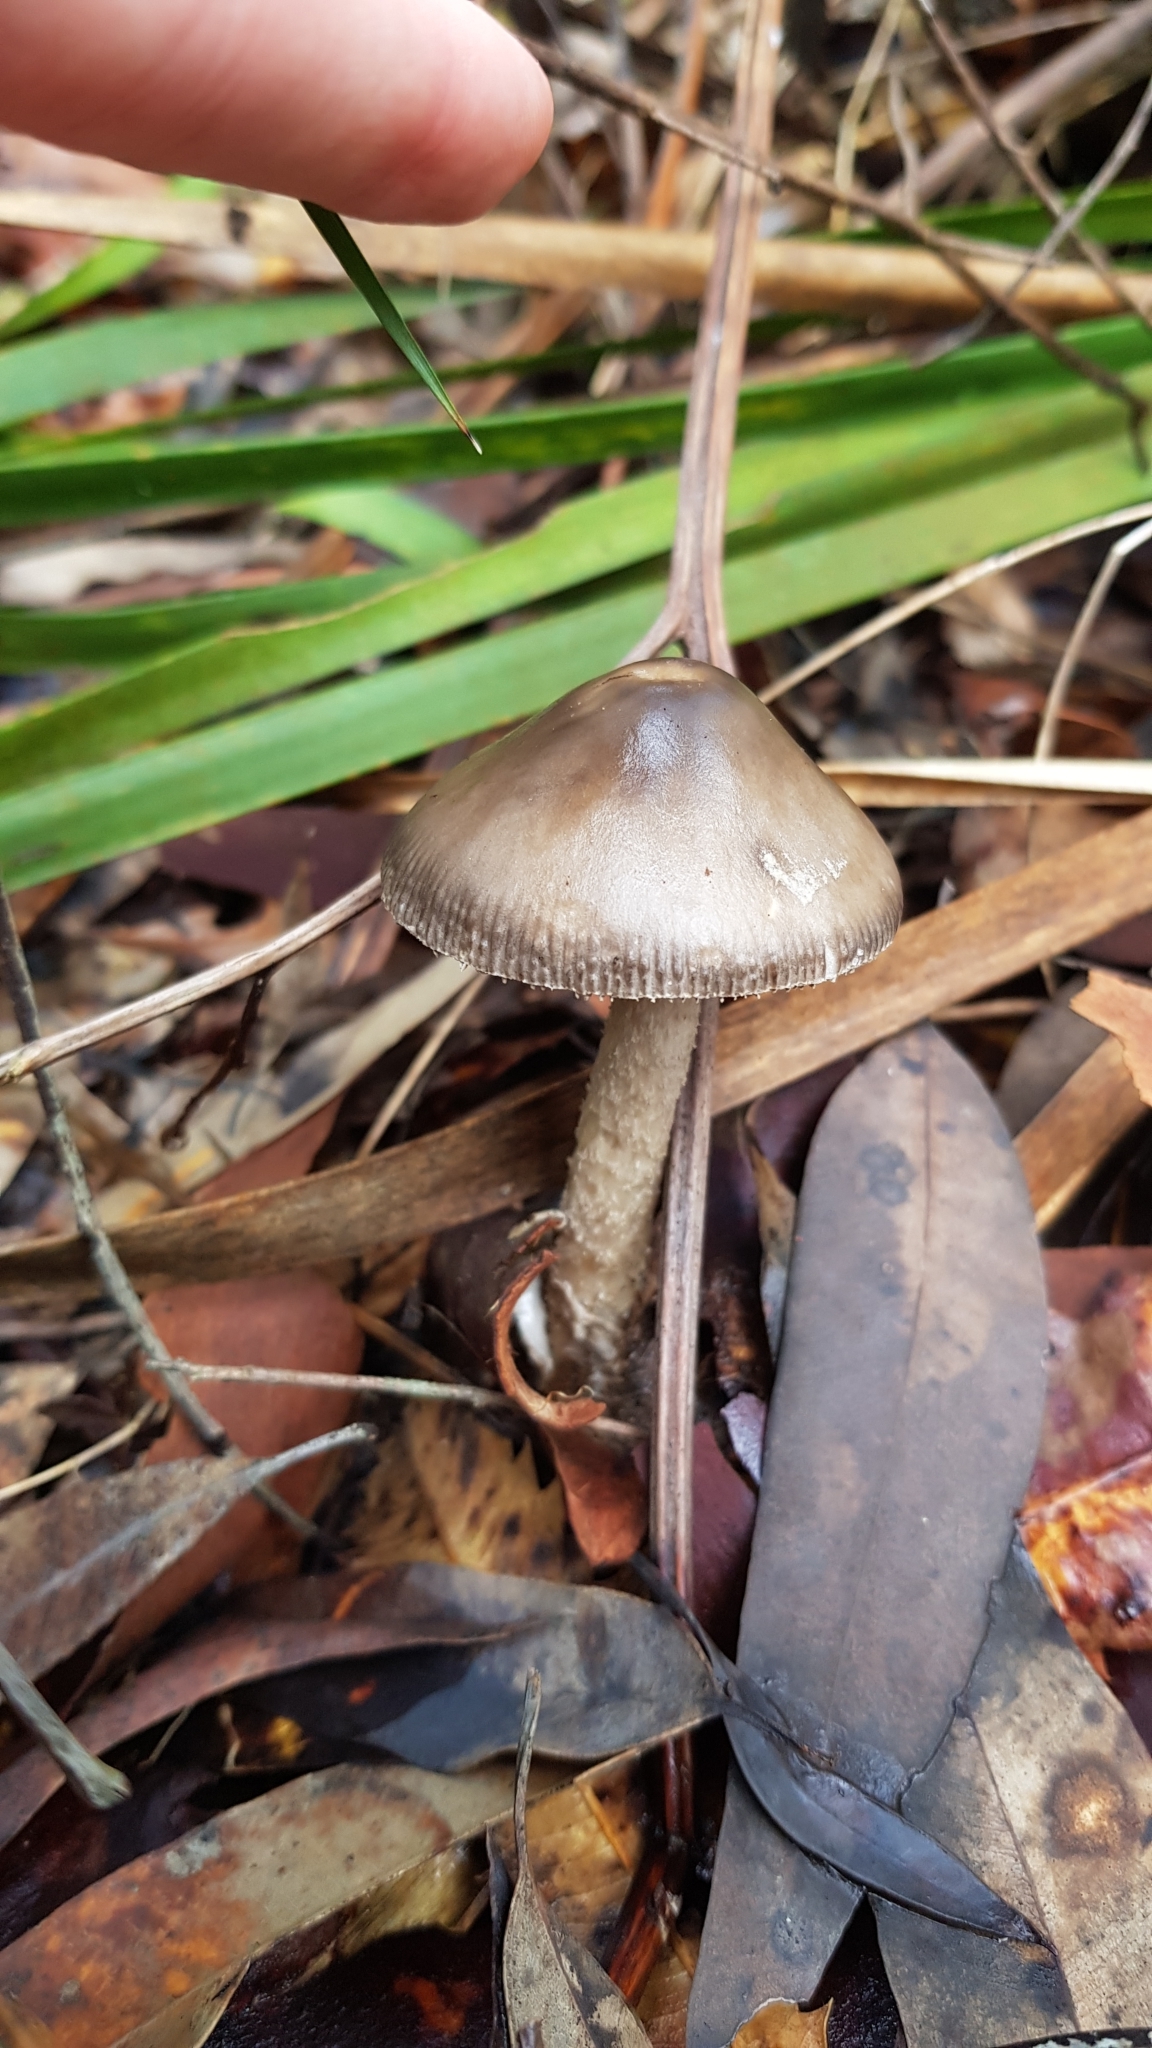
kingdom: Fungi
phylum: Basidiomycota
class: Agaricomycetes
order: Agaricales
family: Amanitaceae
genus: Amanita
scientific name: Amanita cheelii
